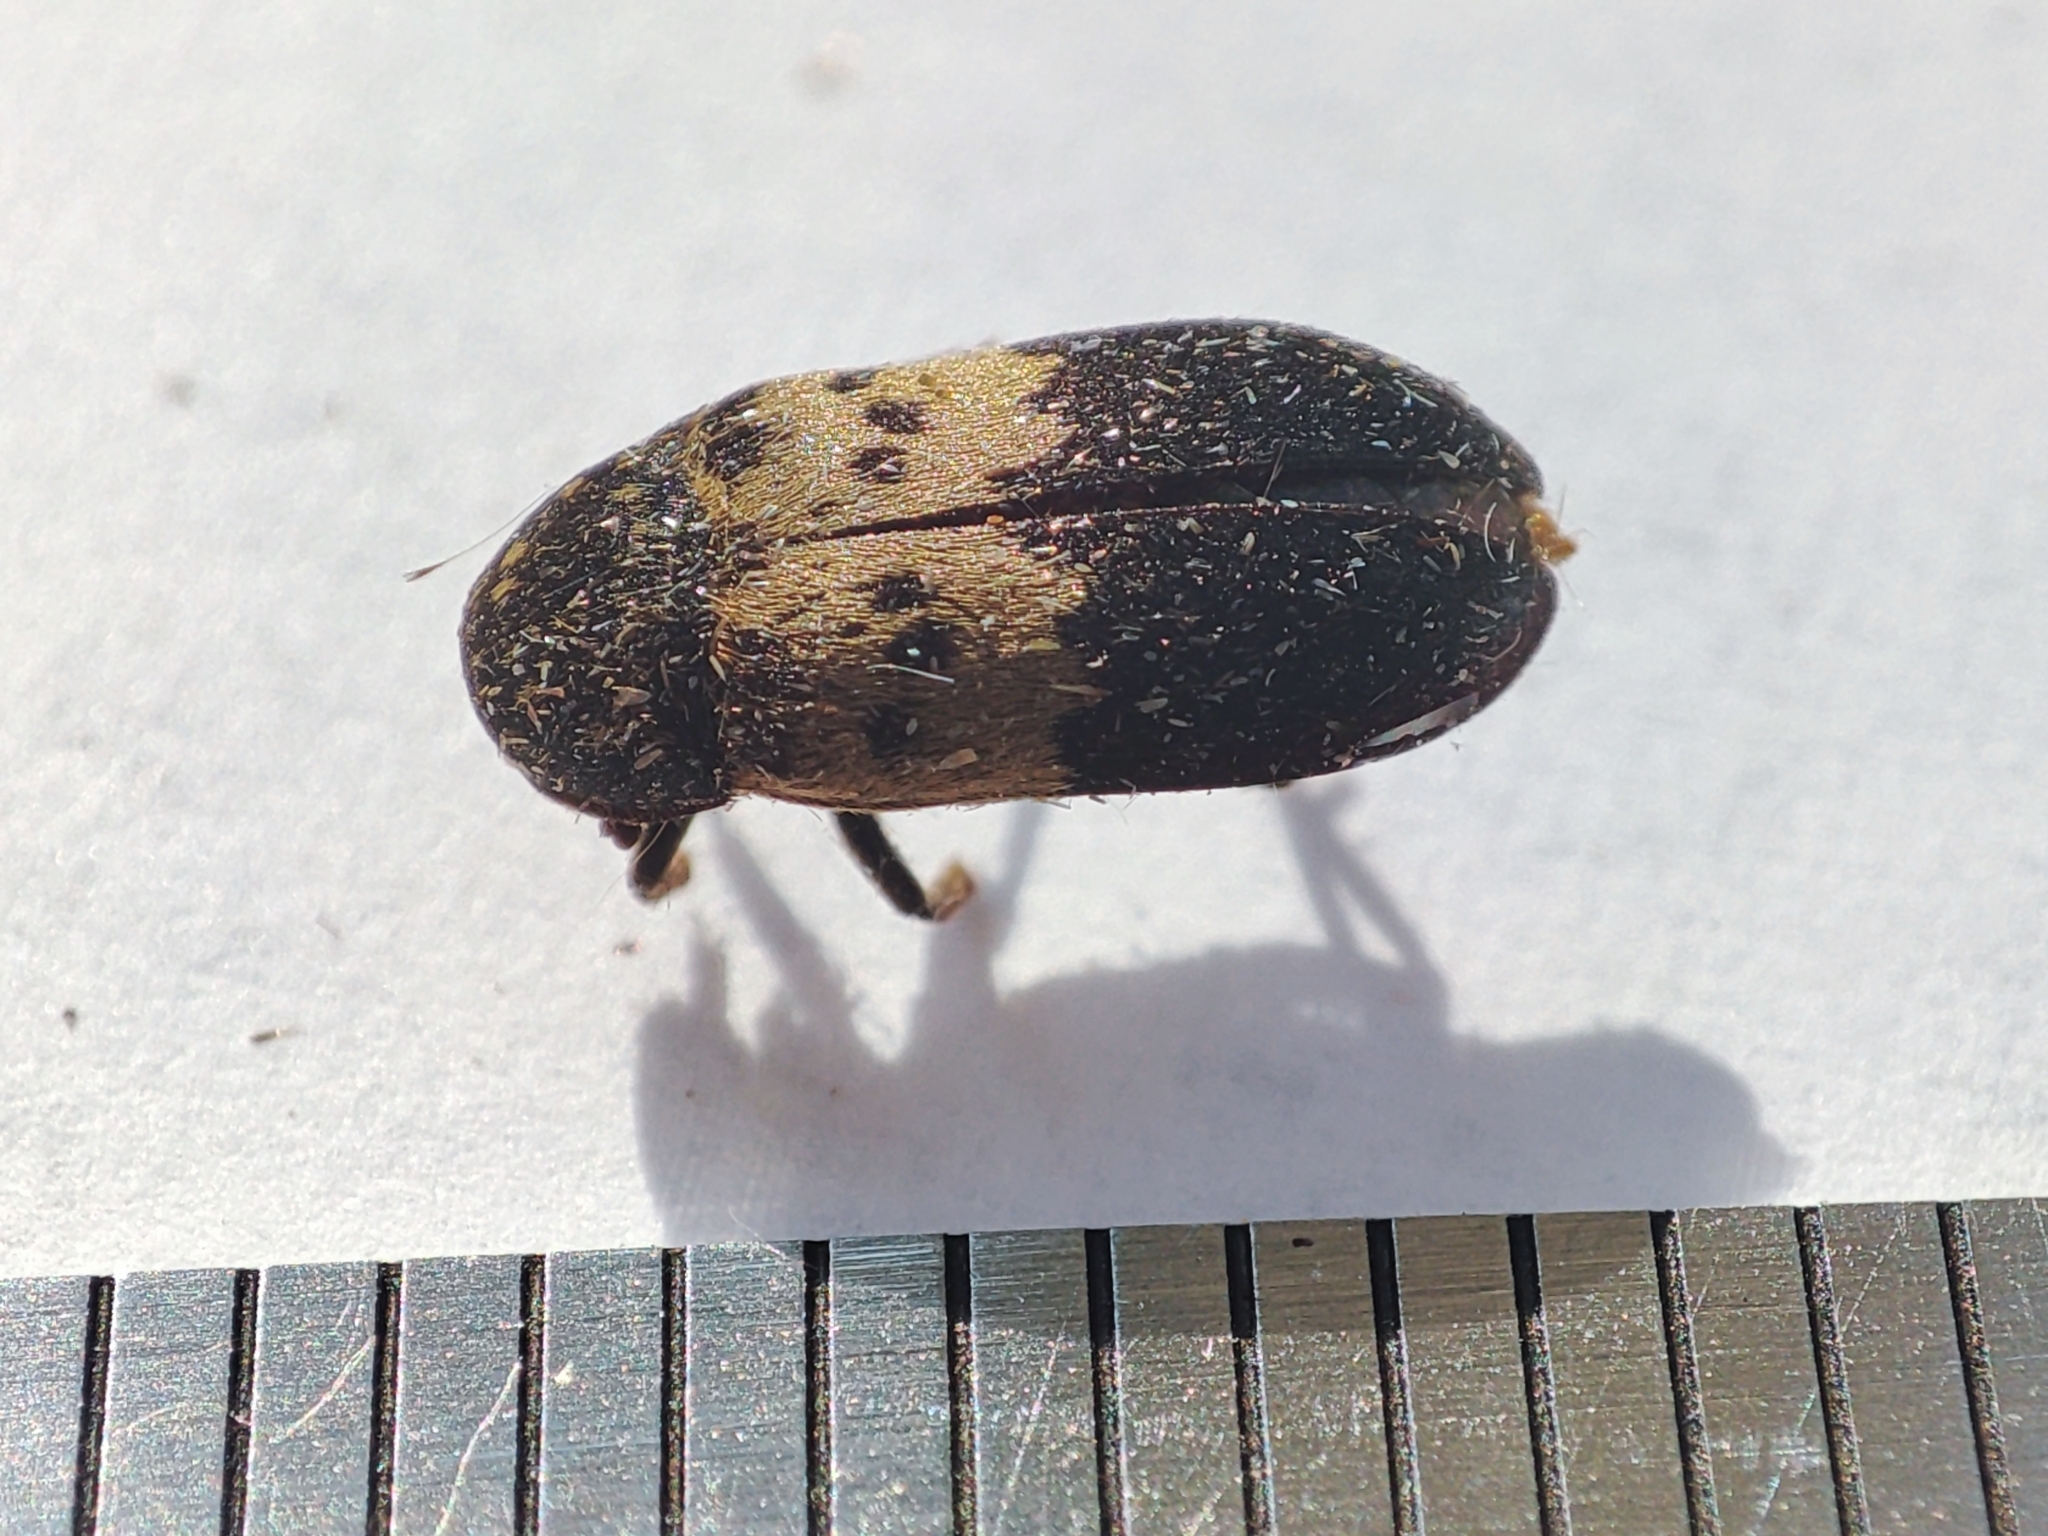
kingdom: Animalia
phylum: Arthropoda
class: Insecta
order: Coleoptera
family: Dermestidae
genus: Dermestes
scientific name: Dermestes lardarius
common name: Larder beetle
